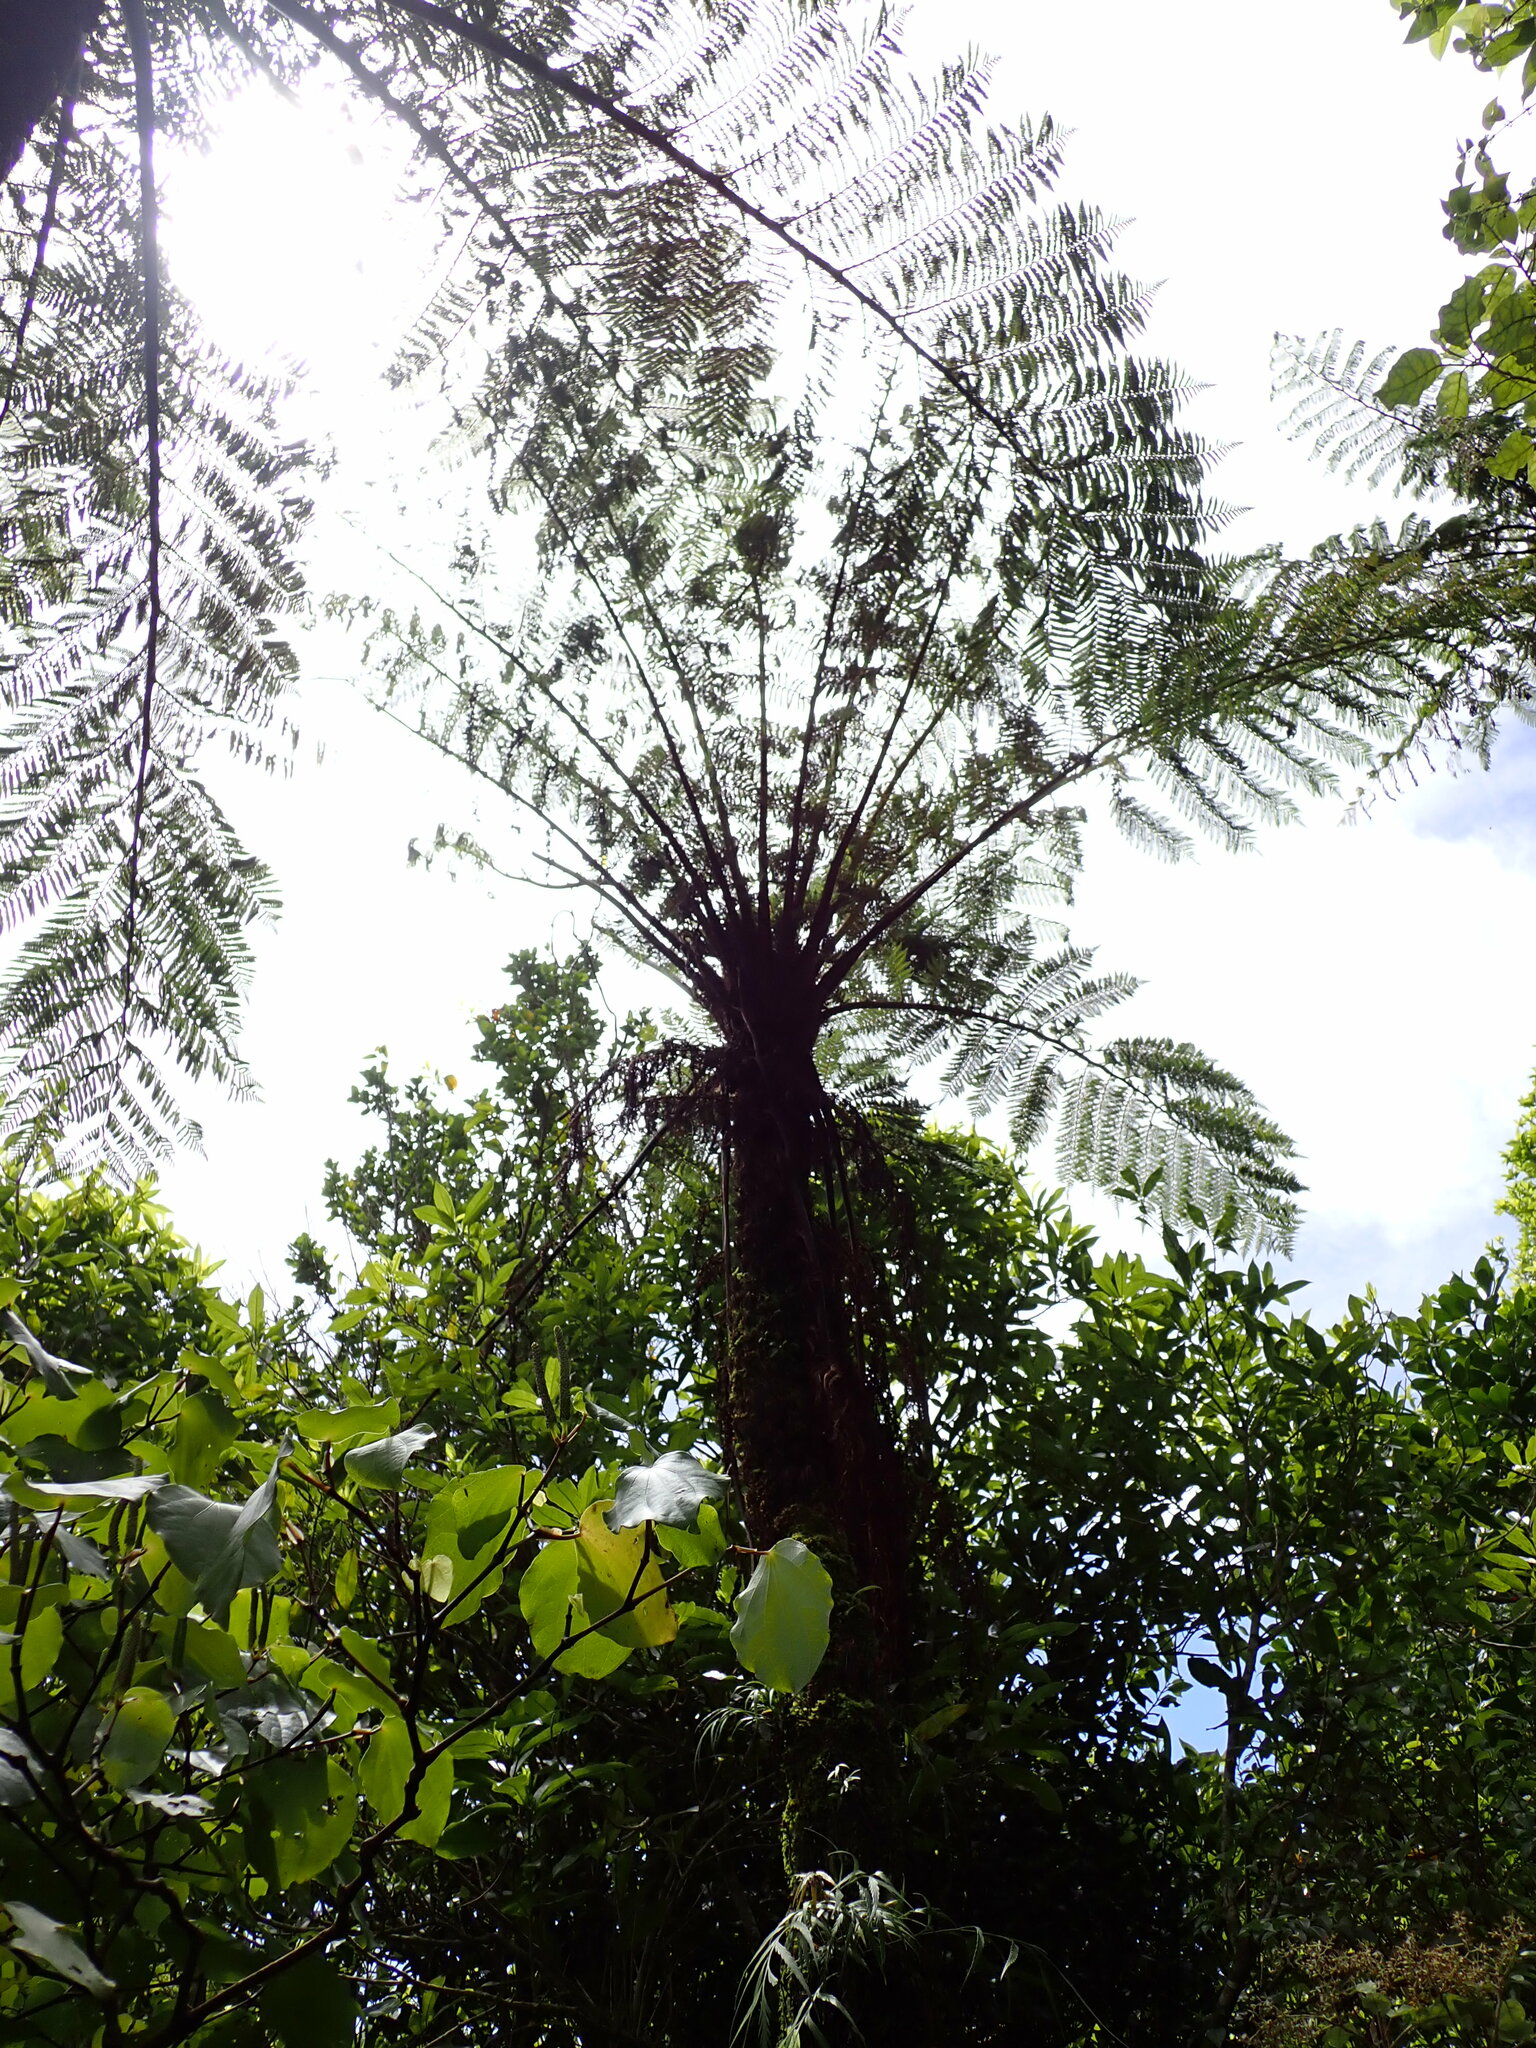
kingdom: Plantae
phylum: Tracheophyta
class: Polypodiopsida
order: Cyatheales
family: Cyatheaceae
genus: Cyathea
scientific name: Cyathea cunninghamii
